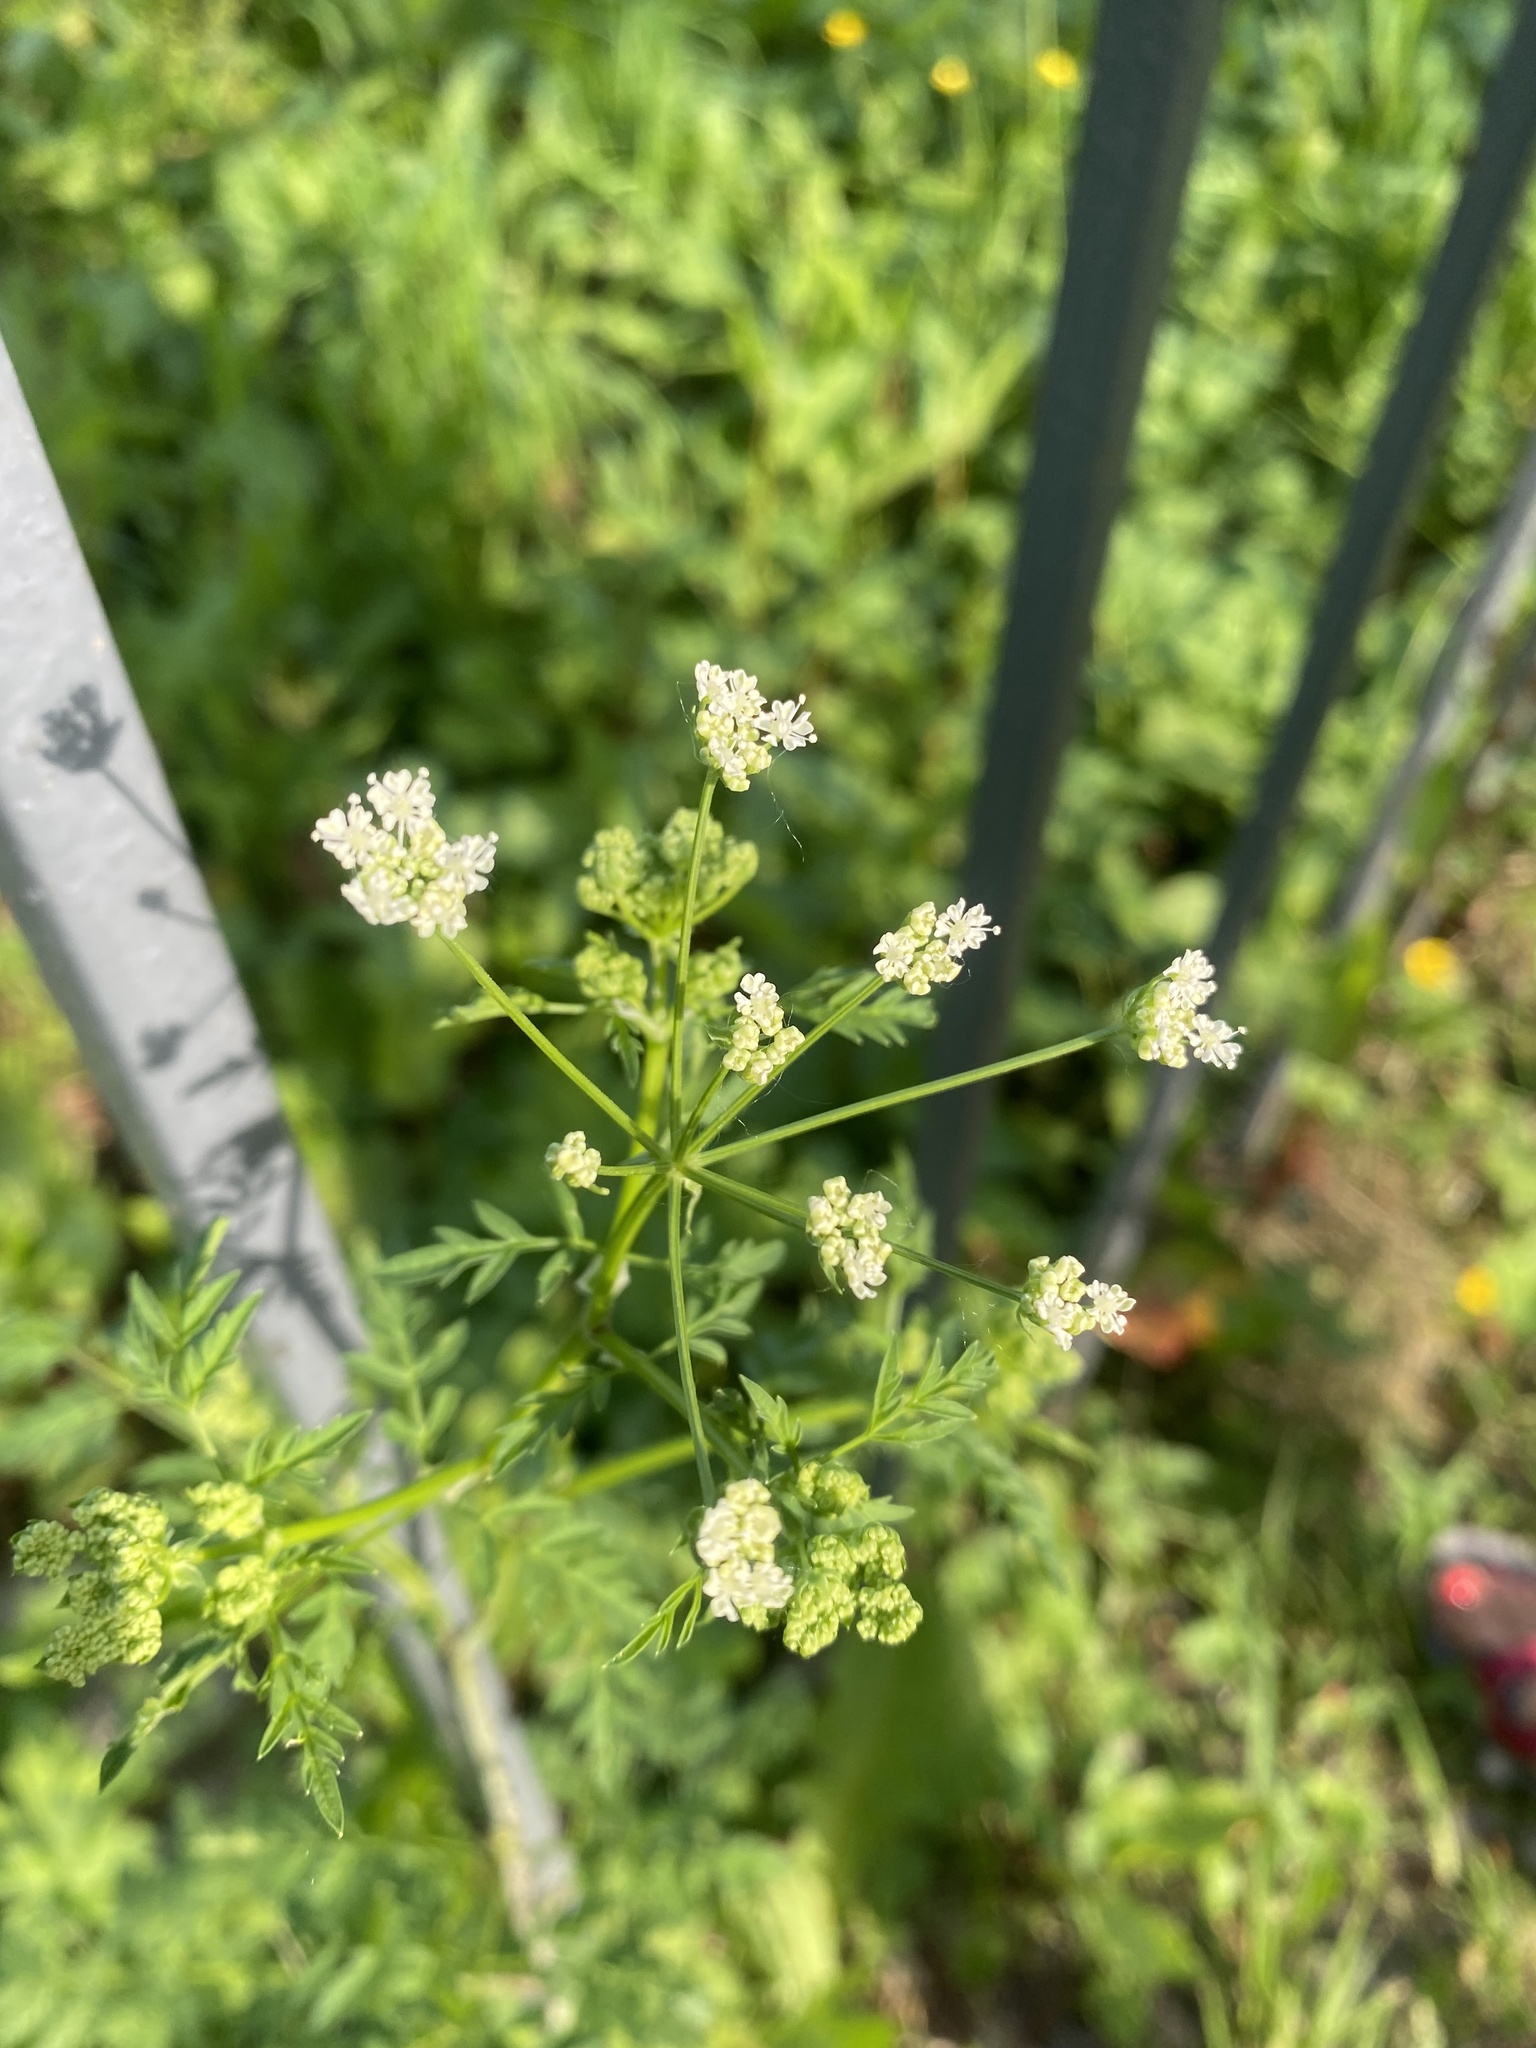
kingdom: Plantae
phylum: Tracheophyta
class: Magnoliopsida
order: Apiales
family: Apiaceae
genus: Anthriscus
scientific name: Anthriscus sylvestris
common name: Cow parsley
